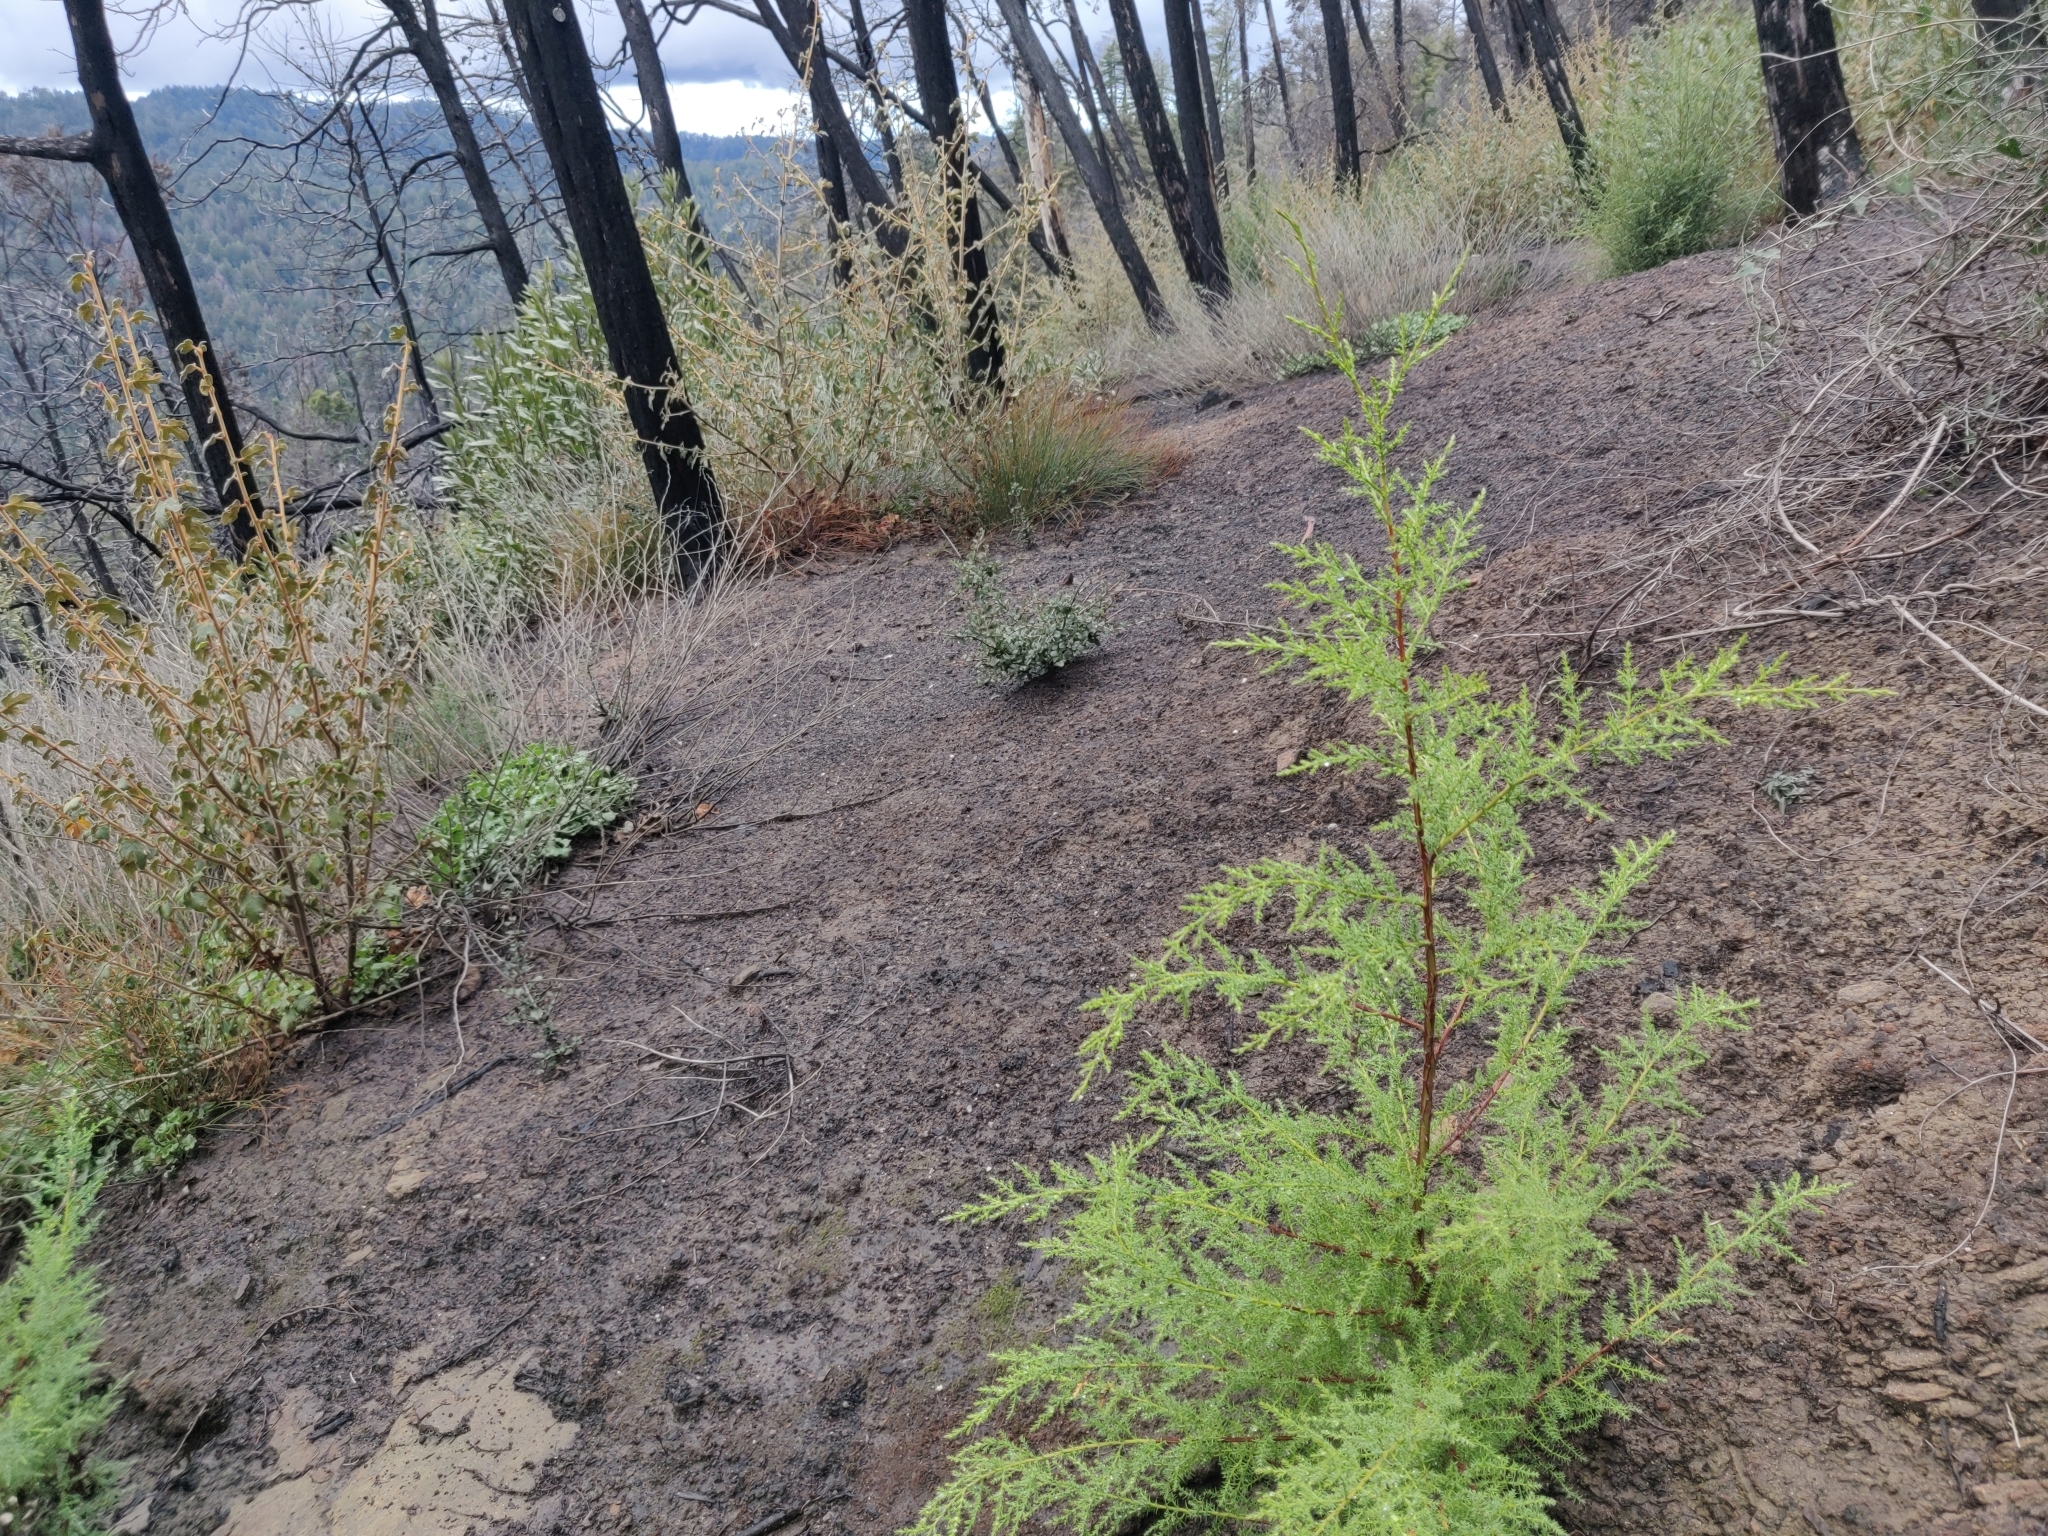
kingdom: Plantae
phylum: Tracheophyta
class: Pinopsida
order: Pinales
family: Cupressaceae
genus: Cupressus
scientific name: Cupressus goveniana
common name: Gowen cypress
